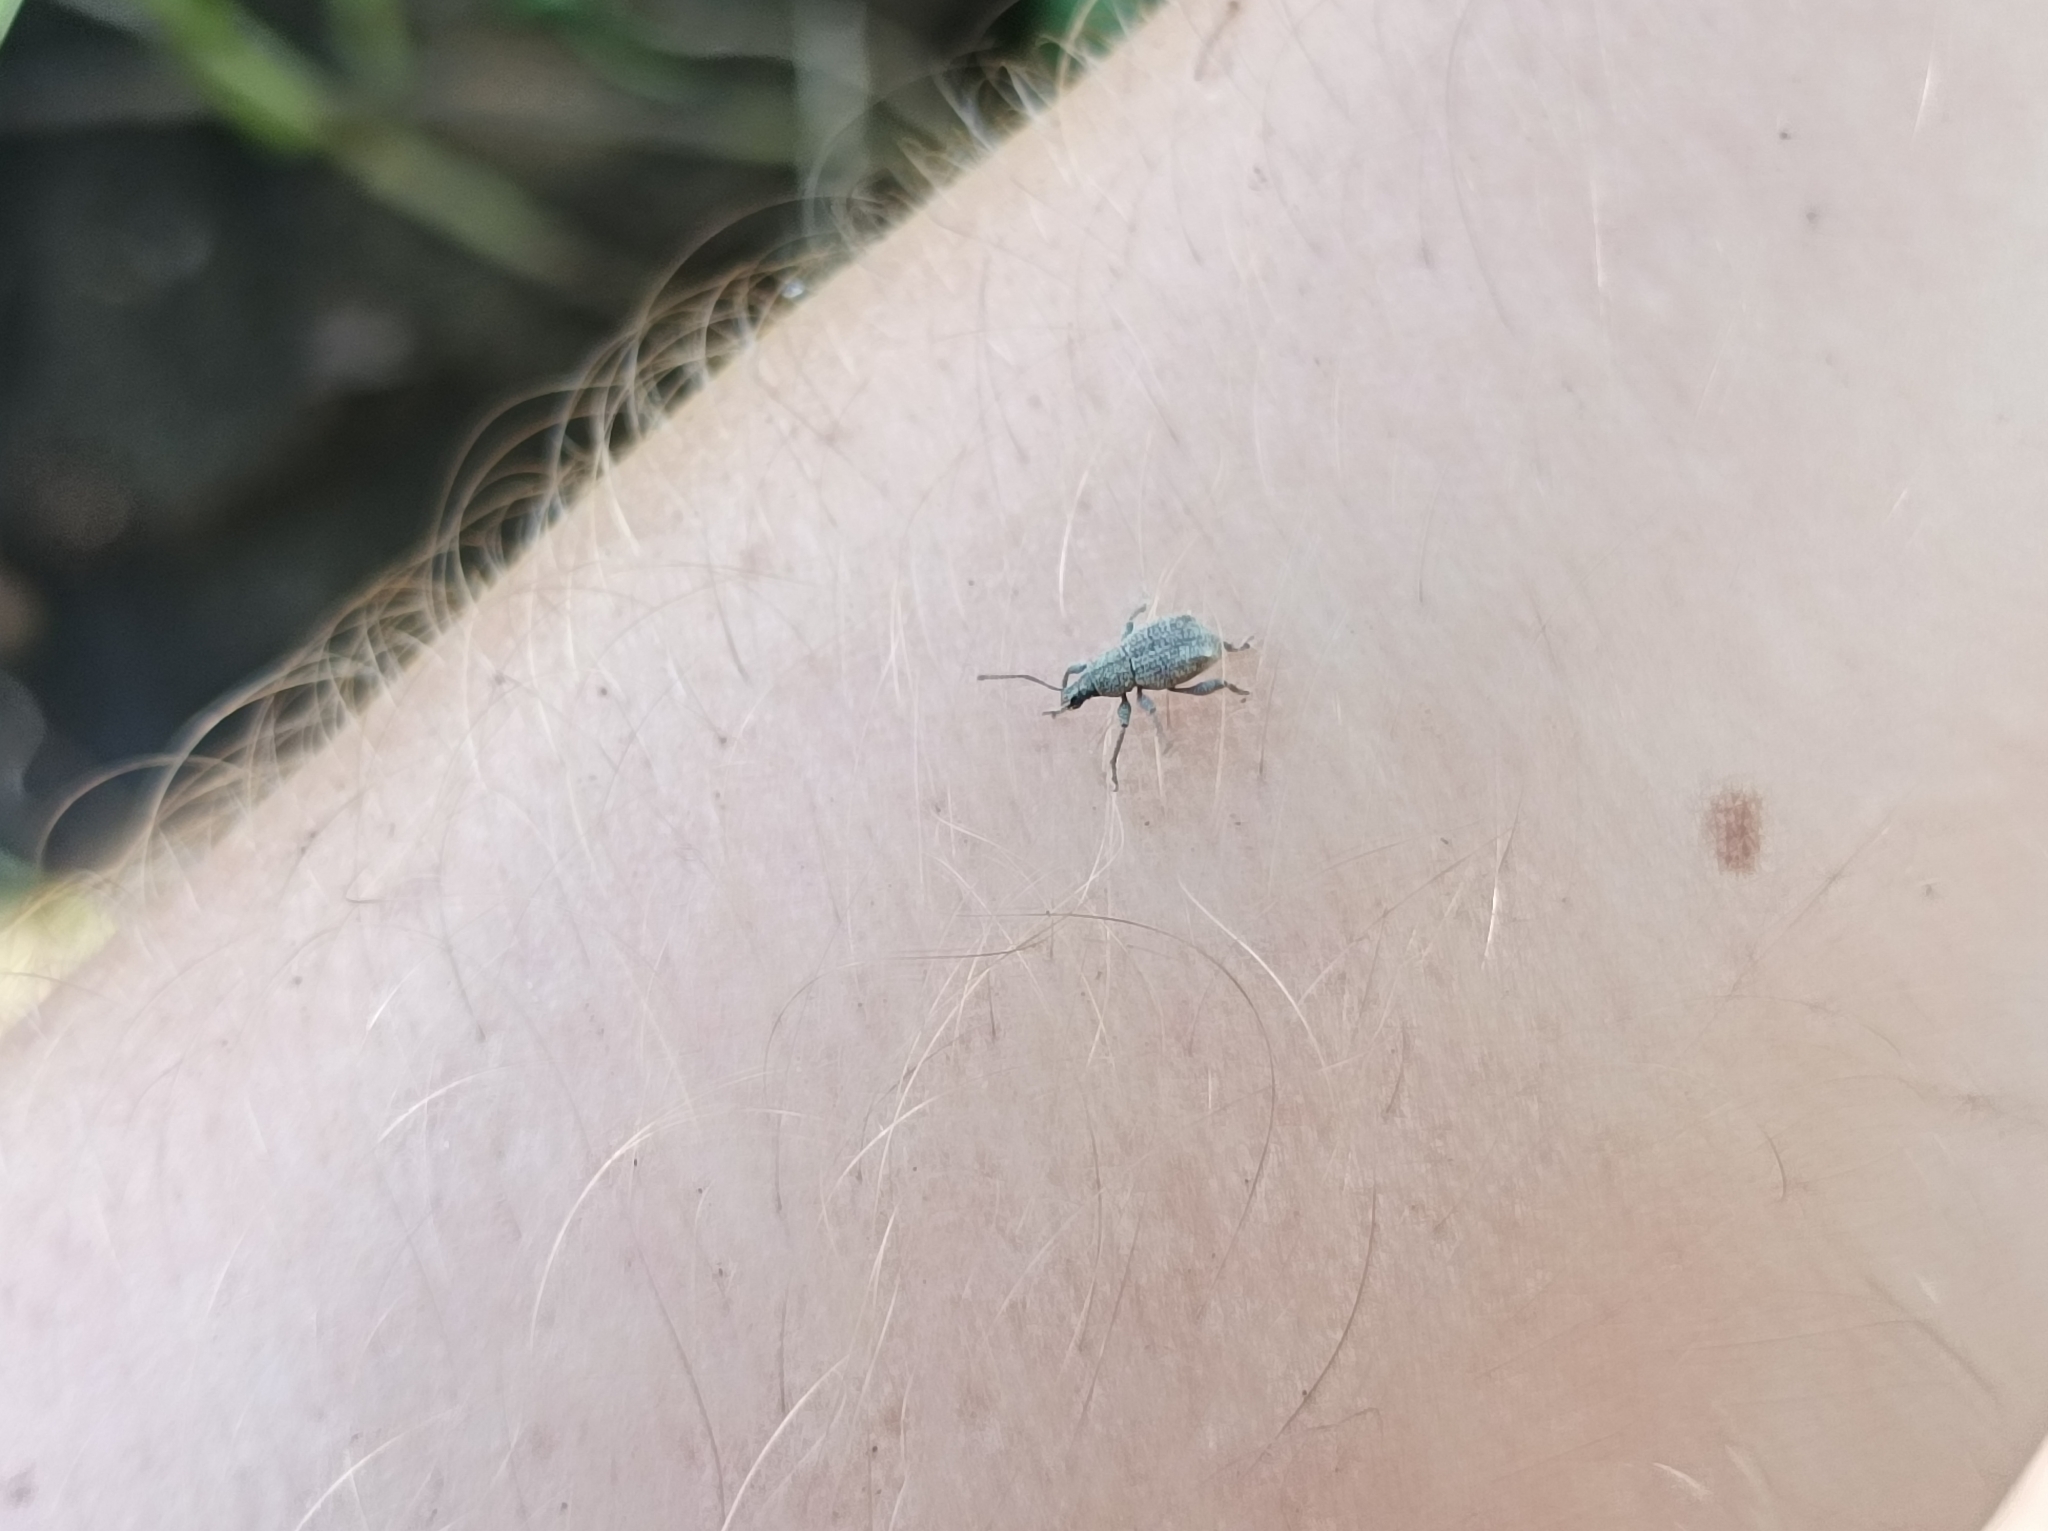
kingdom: Animalia
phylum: Arthropoda
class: Insecta
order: Coleoptera
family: Curculionidae
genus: Celeuthetes
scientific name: Celeuthetes hebridarum
